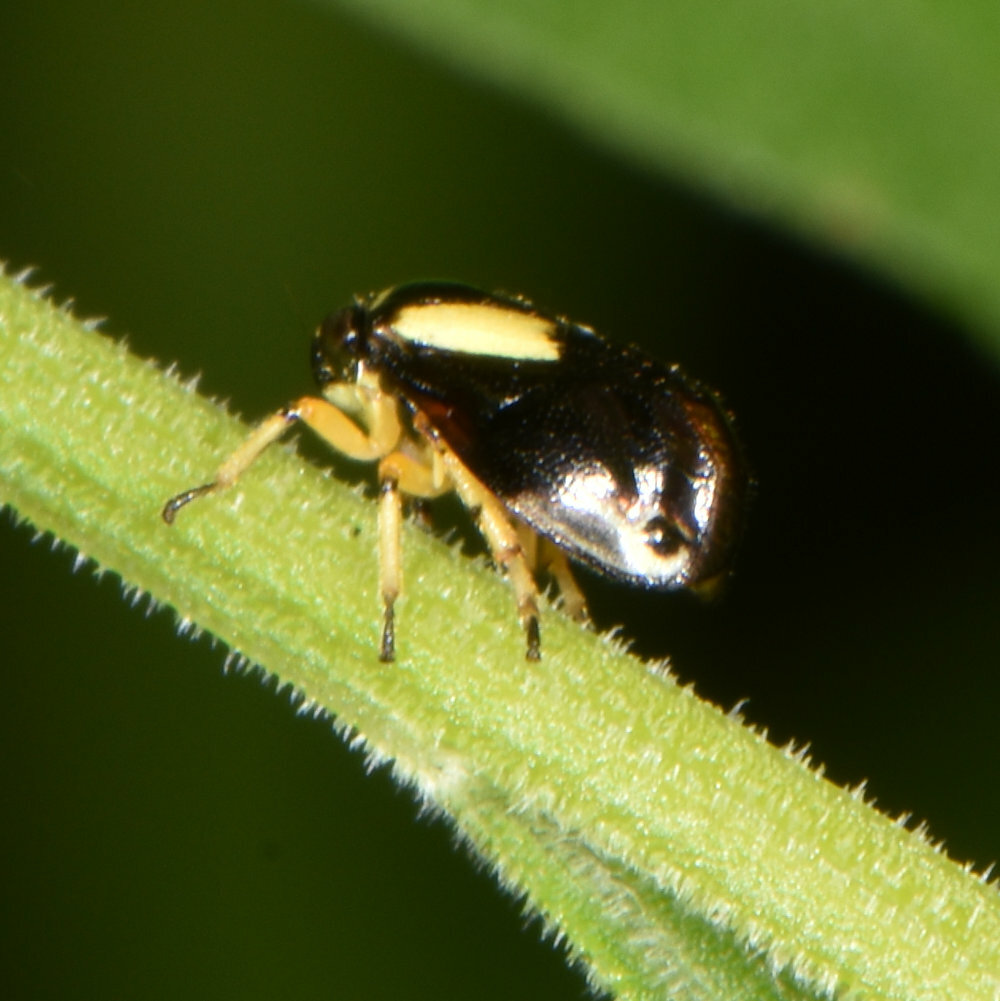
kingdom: Animalia
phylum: Arthropoda
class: Insecta
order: Hemiptera
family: Clastopteridae
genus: Clastoptera
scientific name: Clastoptera proteus
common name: Dogwood spittlebug
